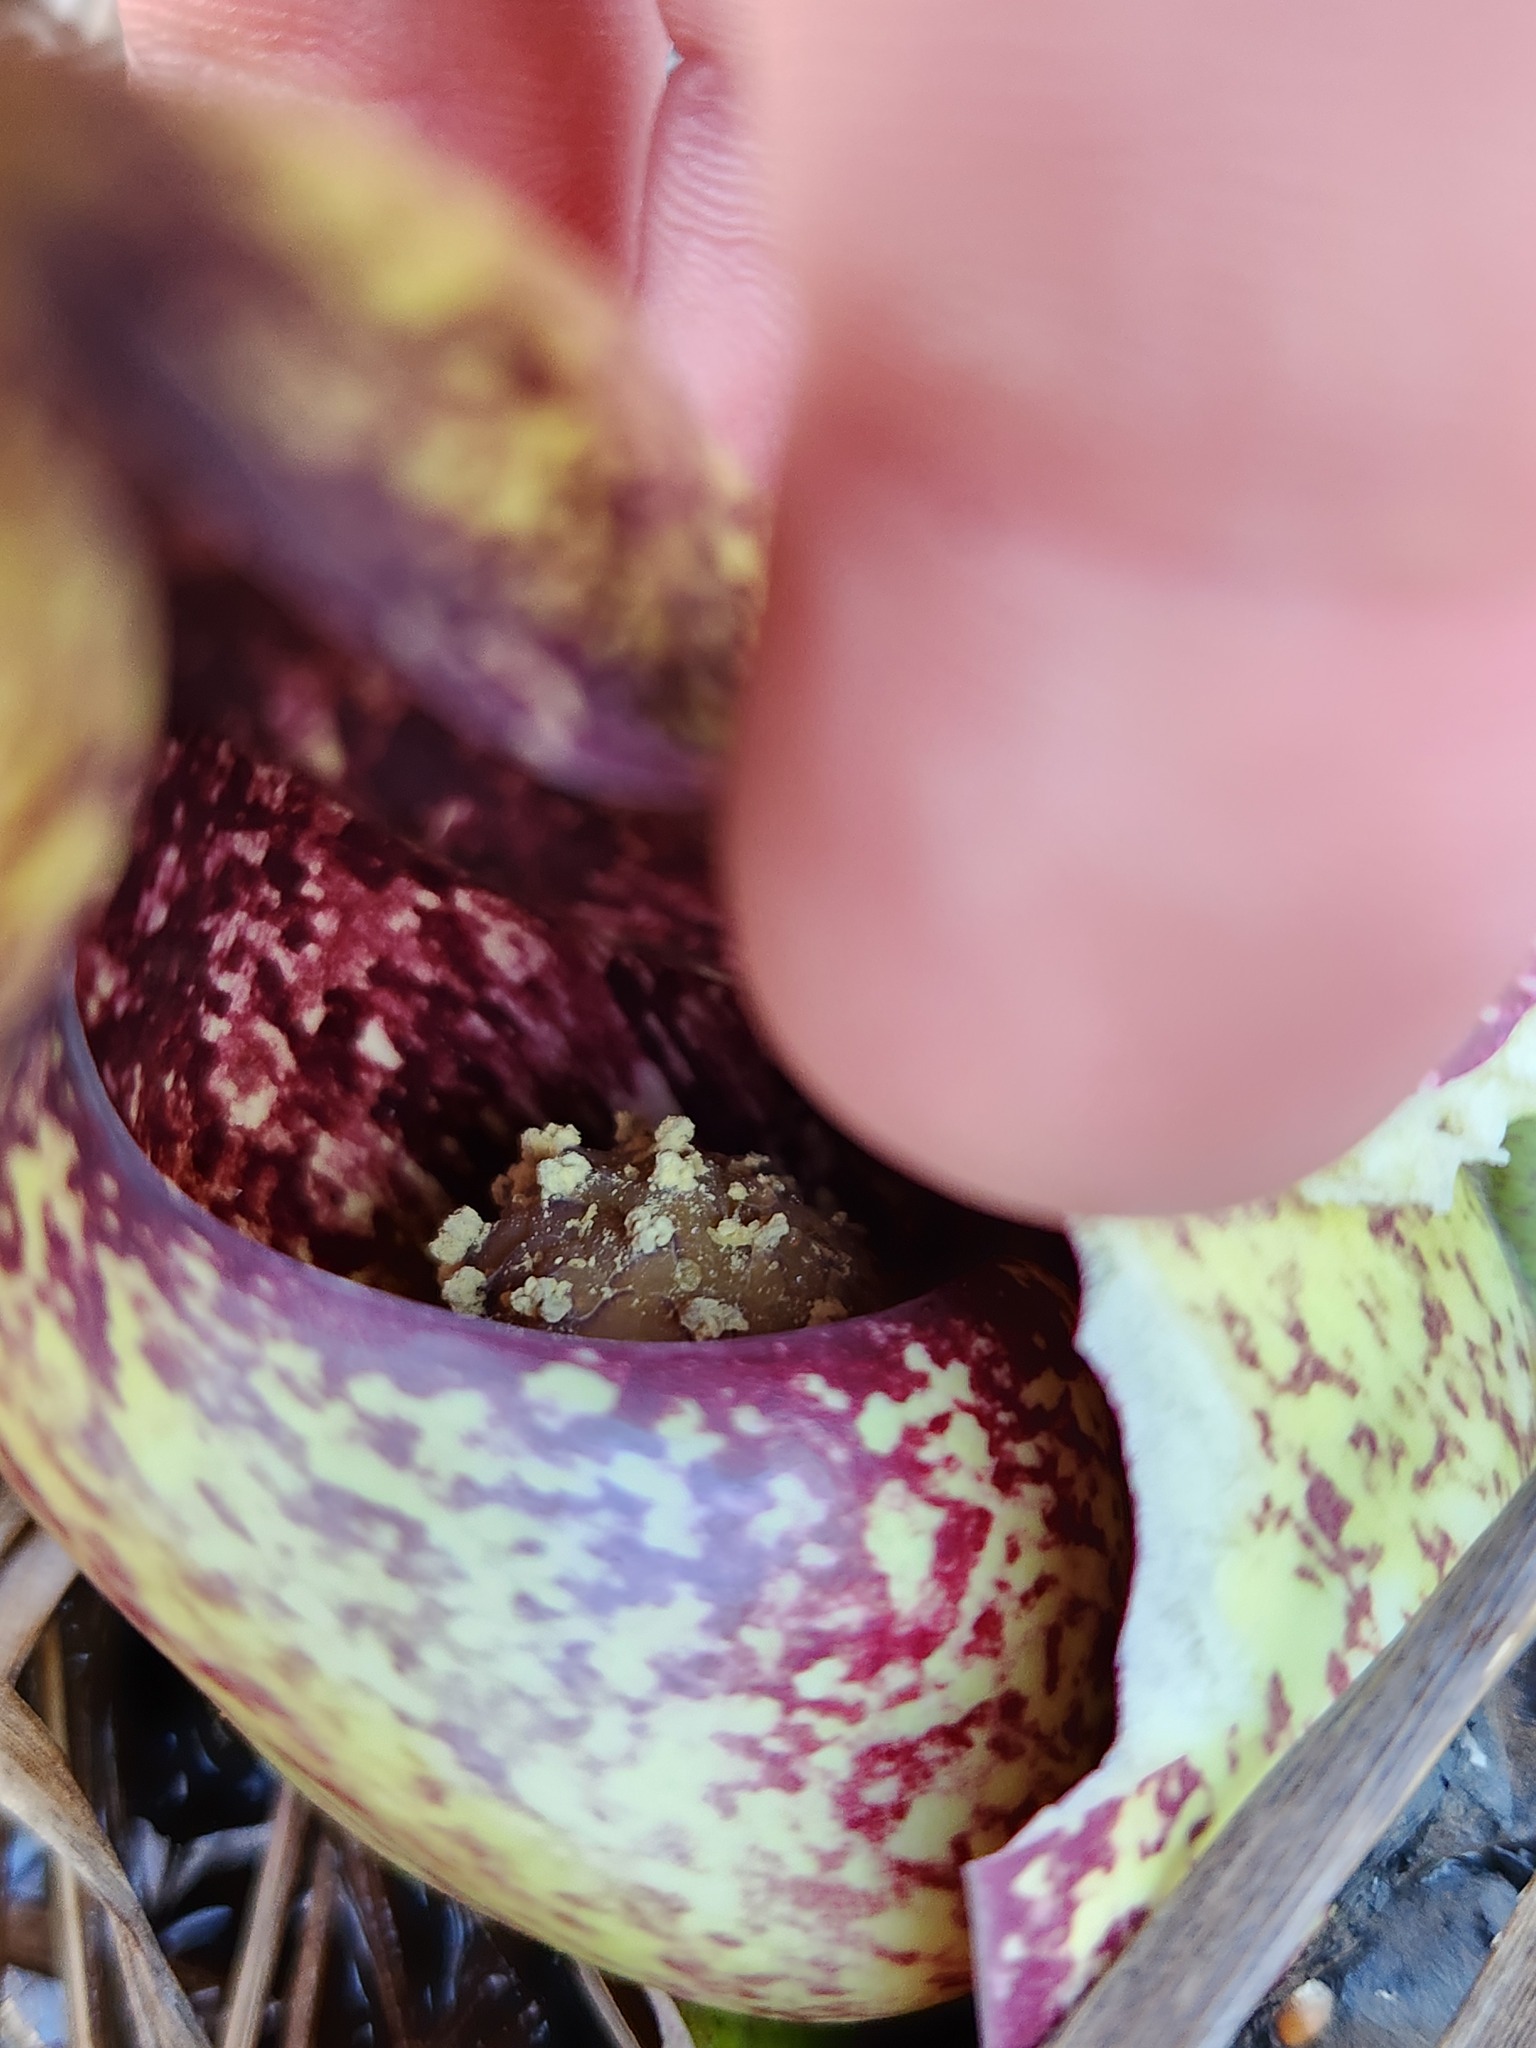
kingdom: Plantae
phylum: Tracheophyta
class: Liliopsida
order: Alismatales
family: Araceae
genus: Symplocarpus
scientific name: Symplocarpus foetidus
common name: Eastern skunk cabbage
